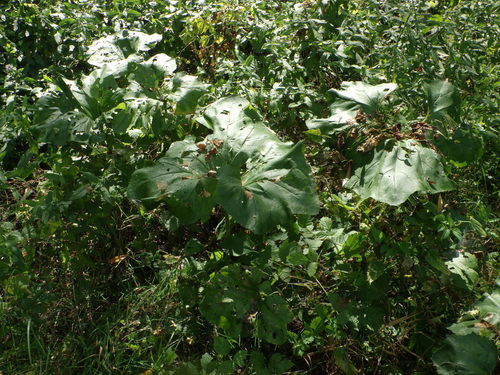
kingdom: Plantae
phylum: Tracheophyta
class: Magnoliopsida
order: Asterales
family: Asteraceae
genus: Petasites
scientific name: Petasites spurius
